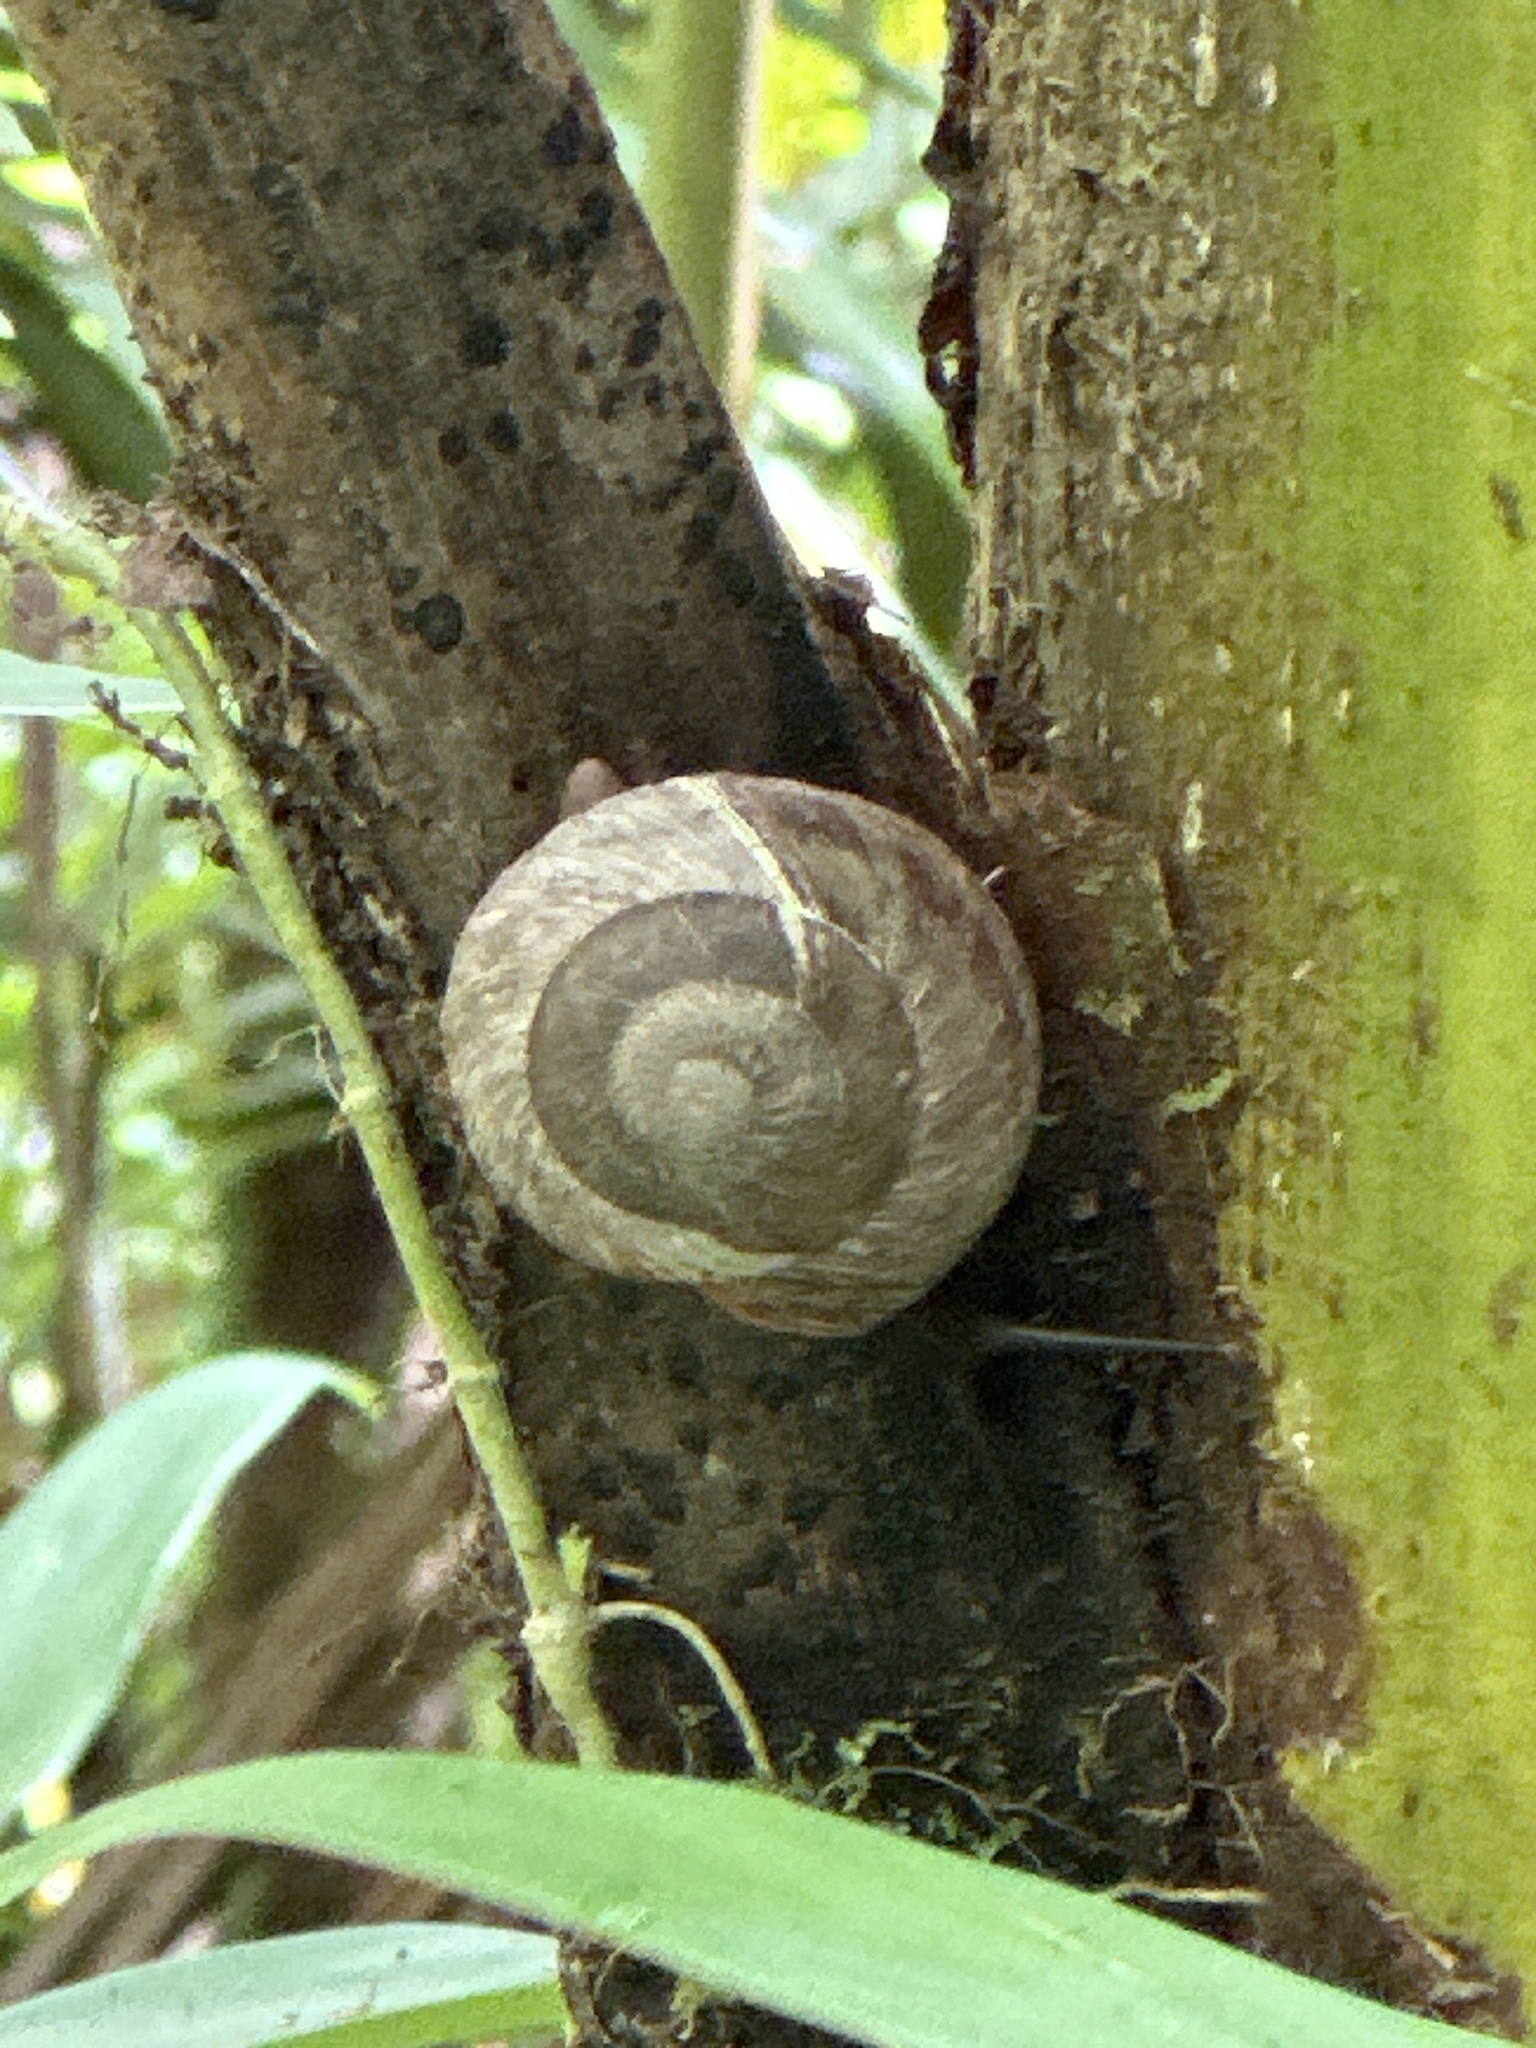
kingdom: Animalia
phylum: Mollusca
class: Gastropoda
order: Stylommatophora
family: Solaropsidae
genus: Caracolus
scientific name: Caracolus carocolla
